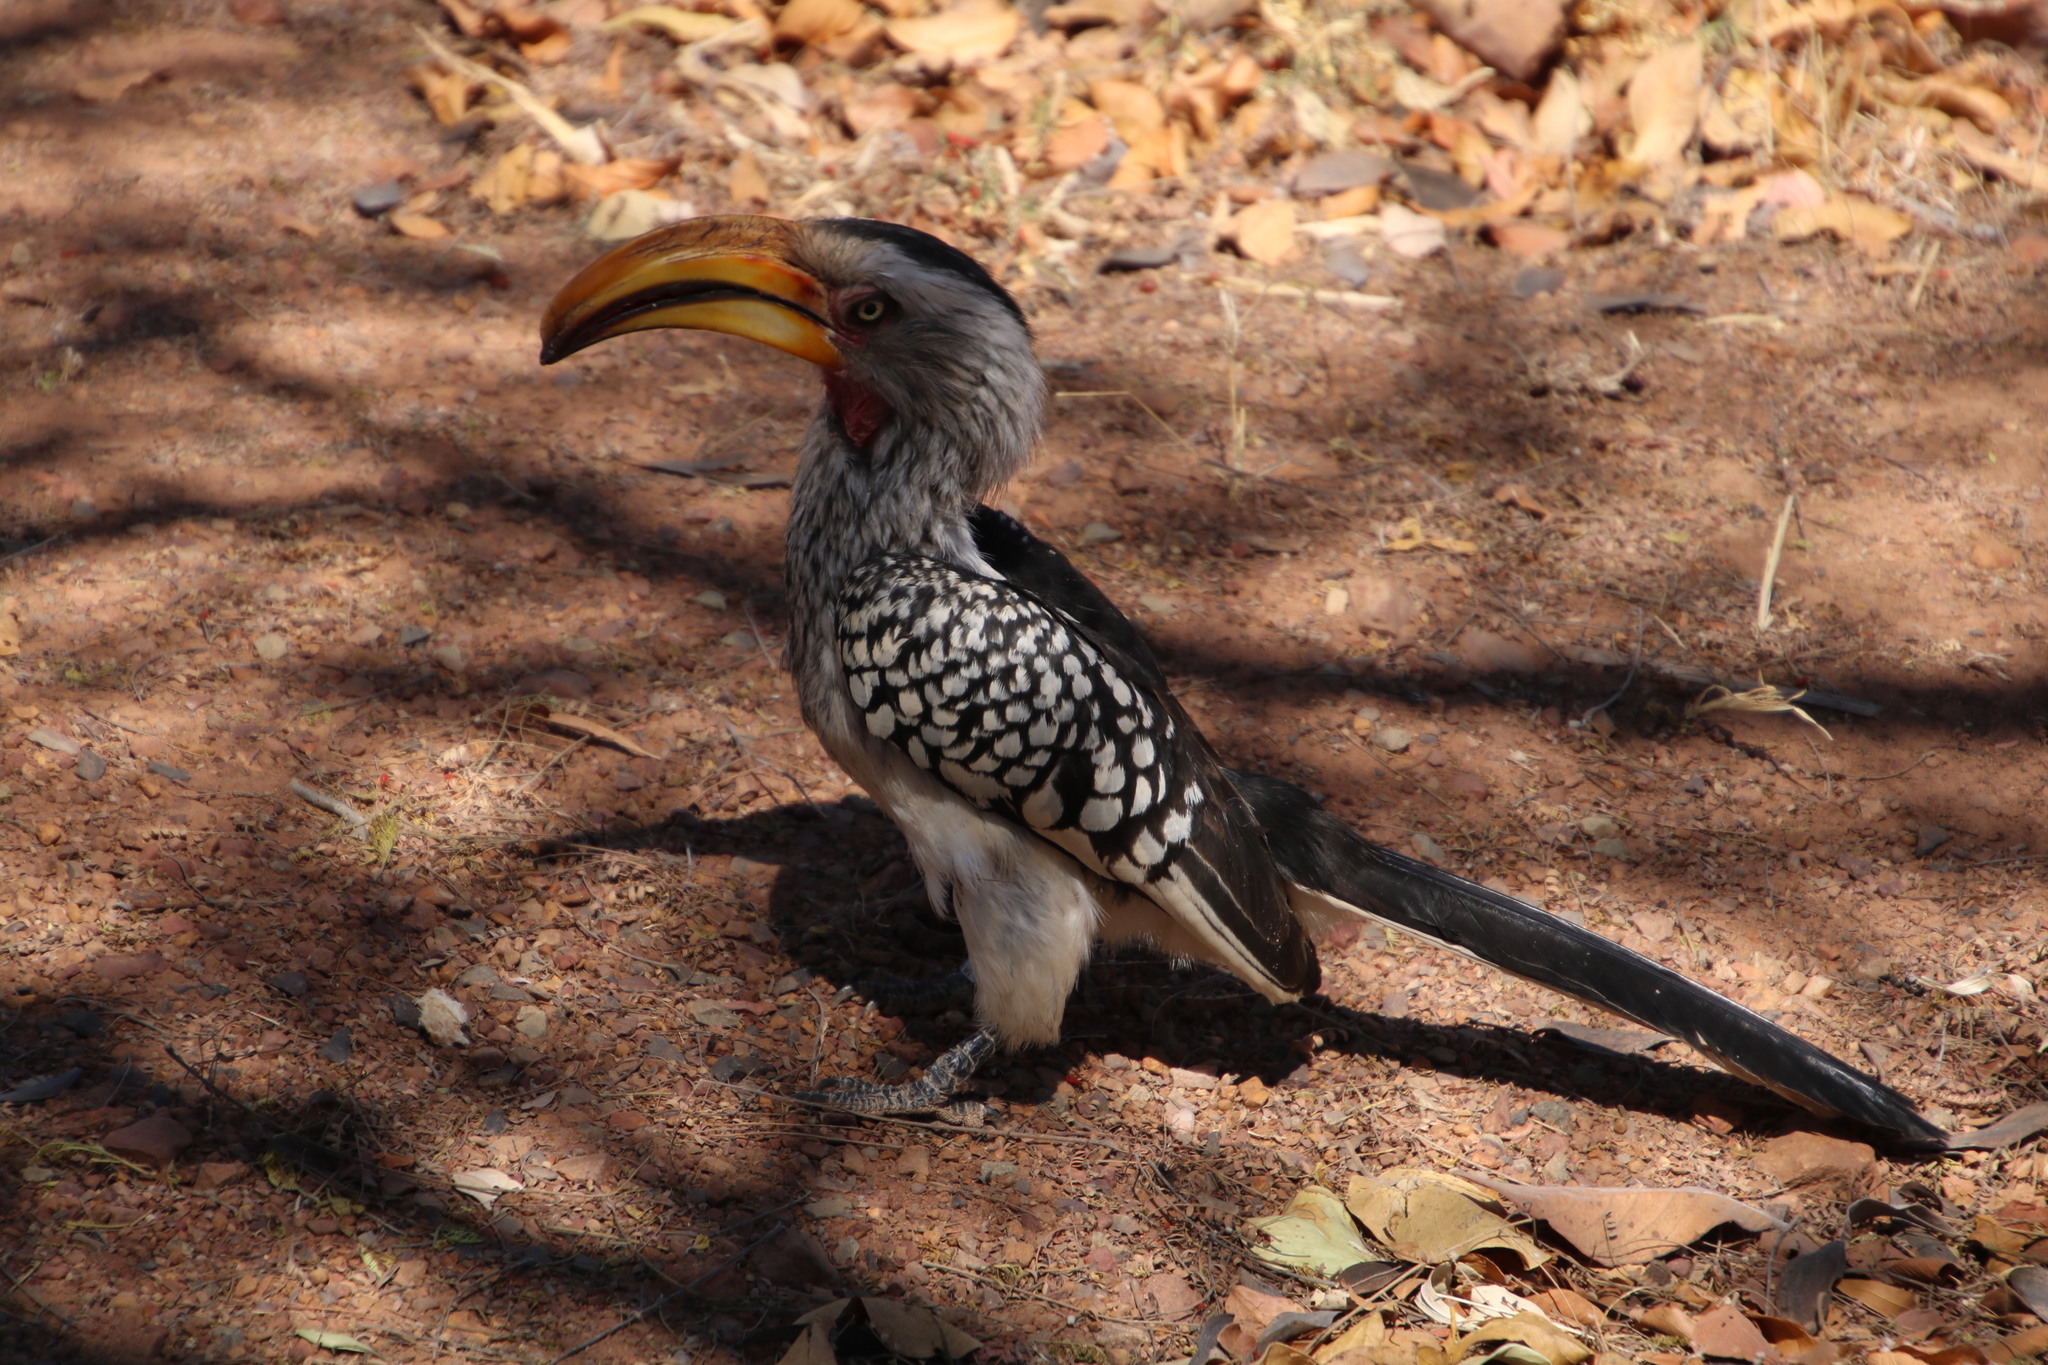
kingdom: Animalia
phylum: Chordata
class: Aves
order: Bucerotiformes
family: Bucerotidae
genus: Tockus
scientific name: Tockus leucomelas
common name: Southern yellow-billed hornbill
